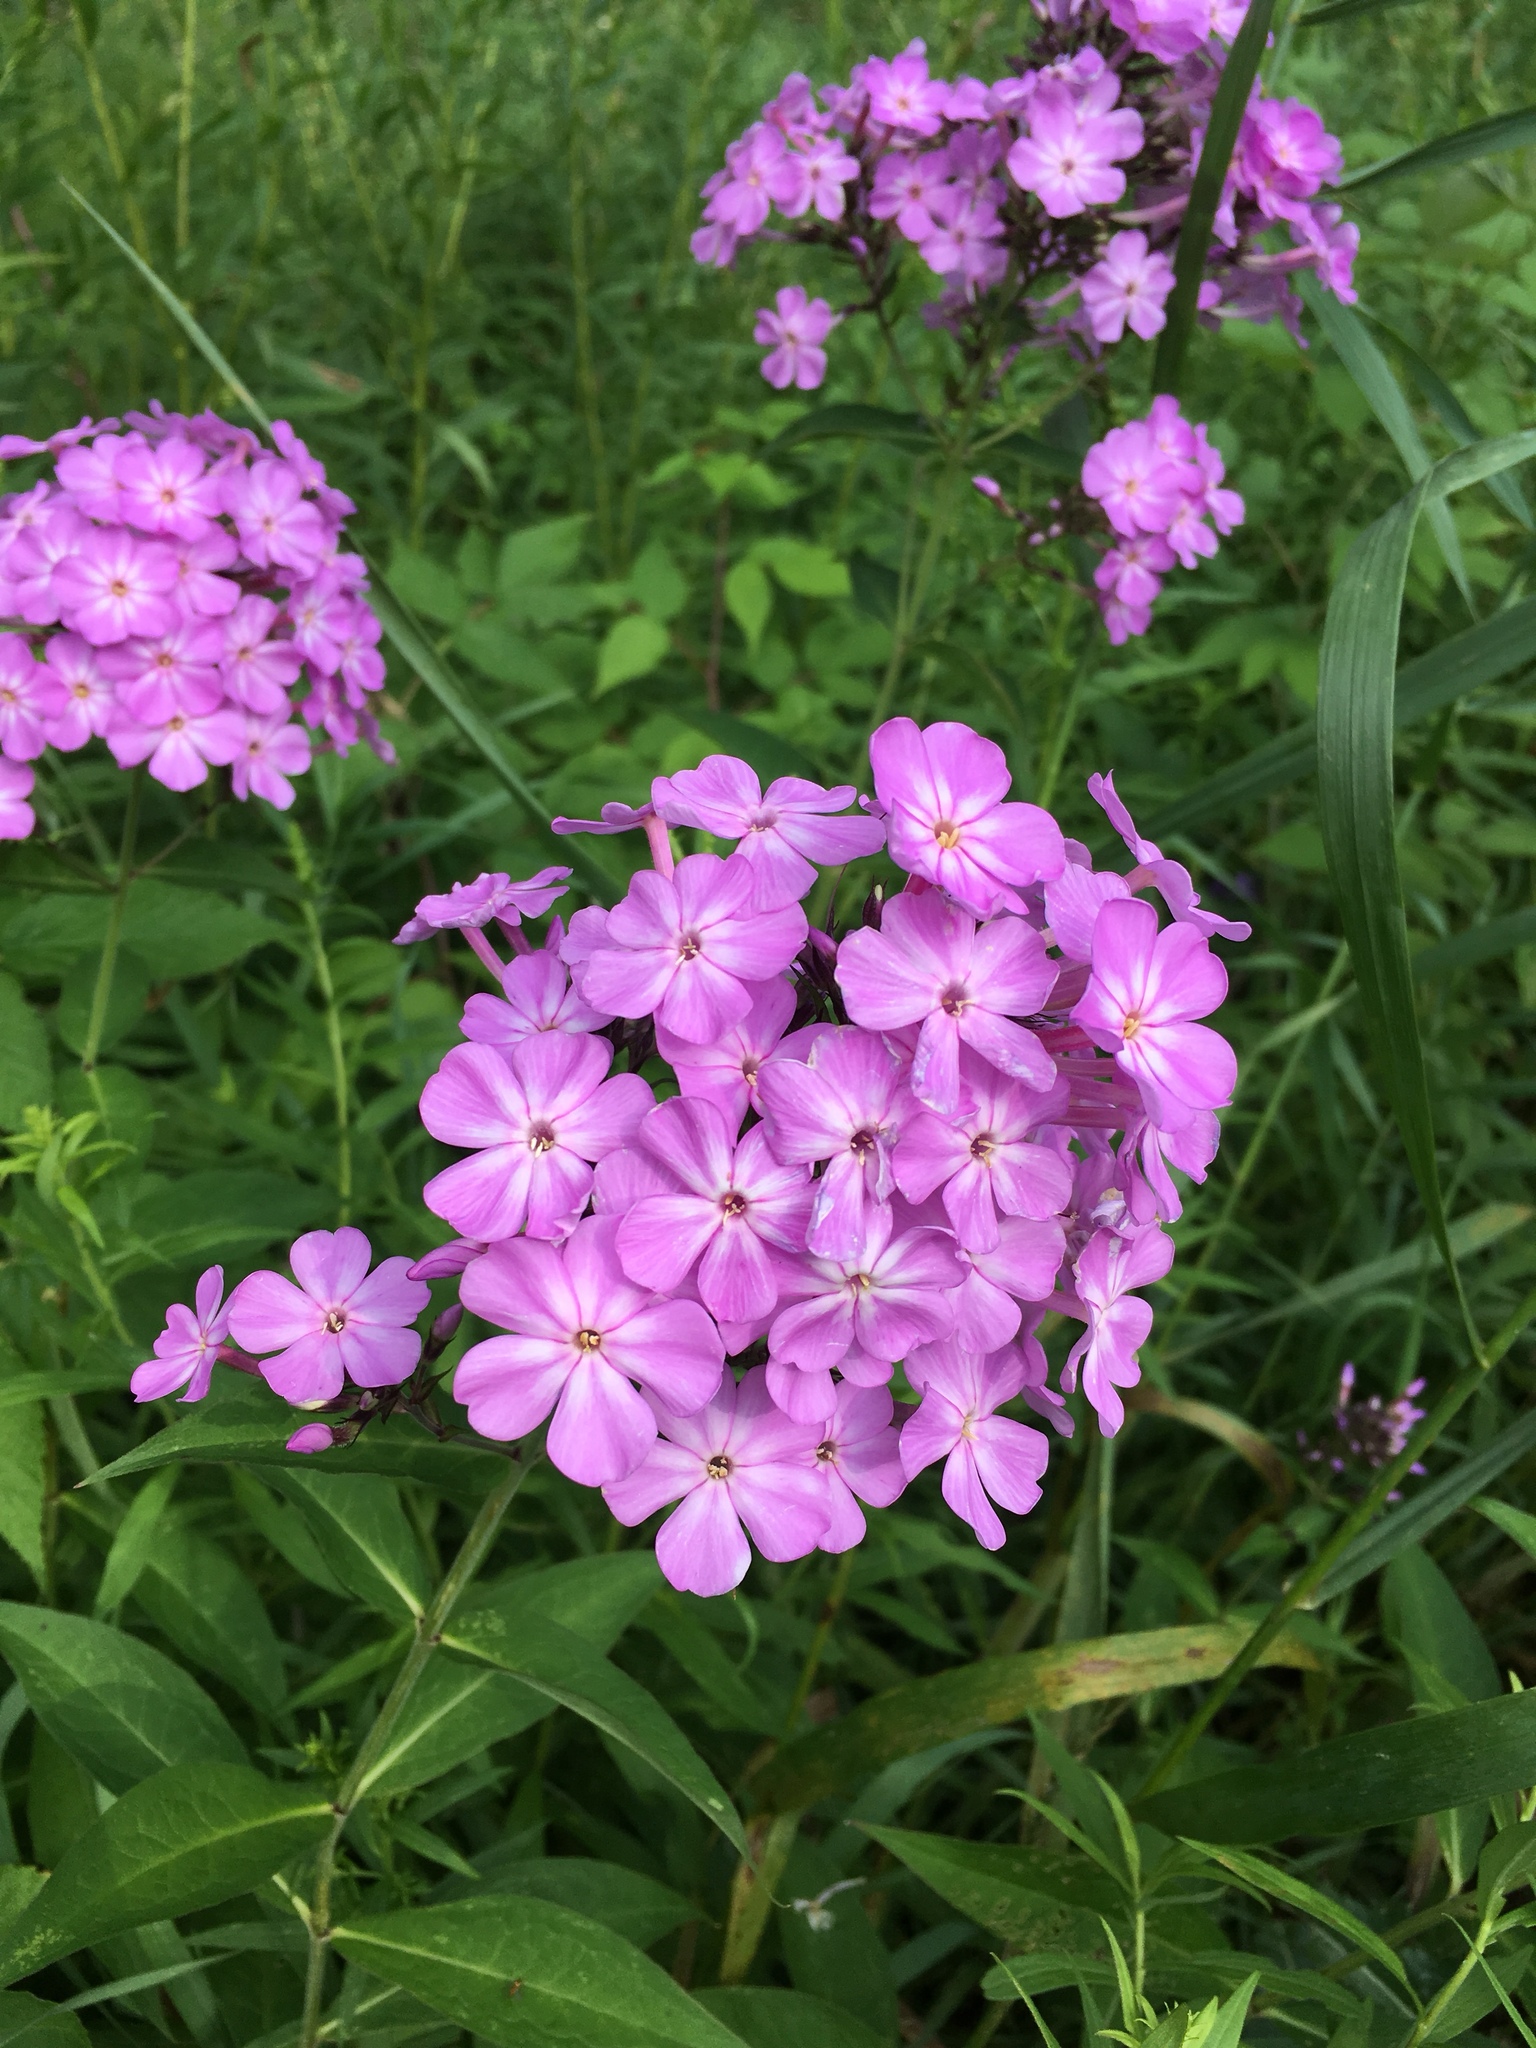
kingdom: Plantae
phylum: Tracheophyta
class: Magnoliopsida
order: Ericales
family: Polemoniaceae
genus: Phlox
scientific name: Phlox paniculata
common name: Fall phlox
